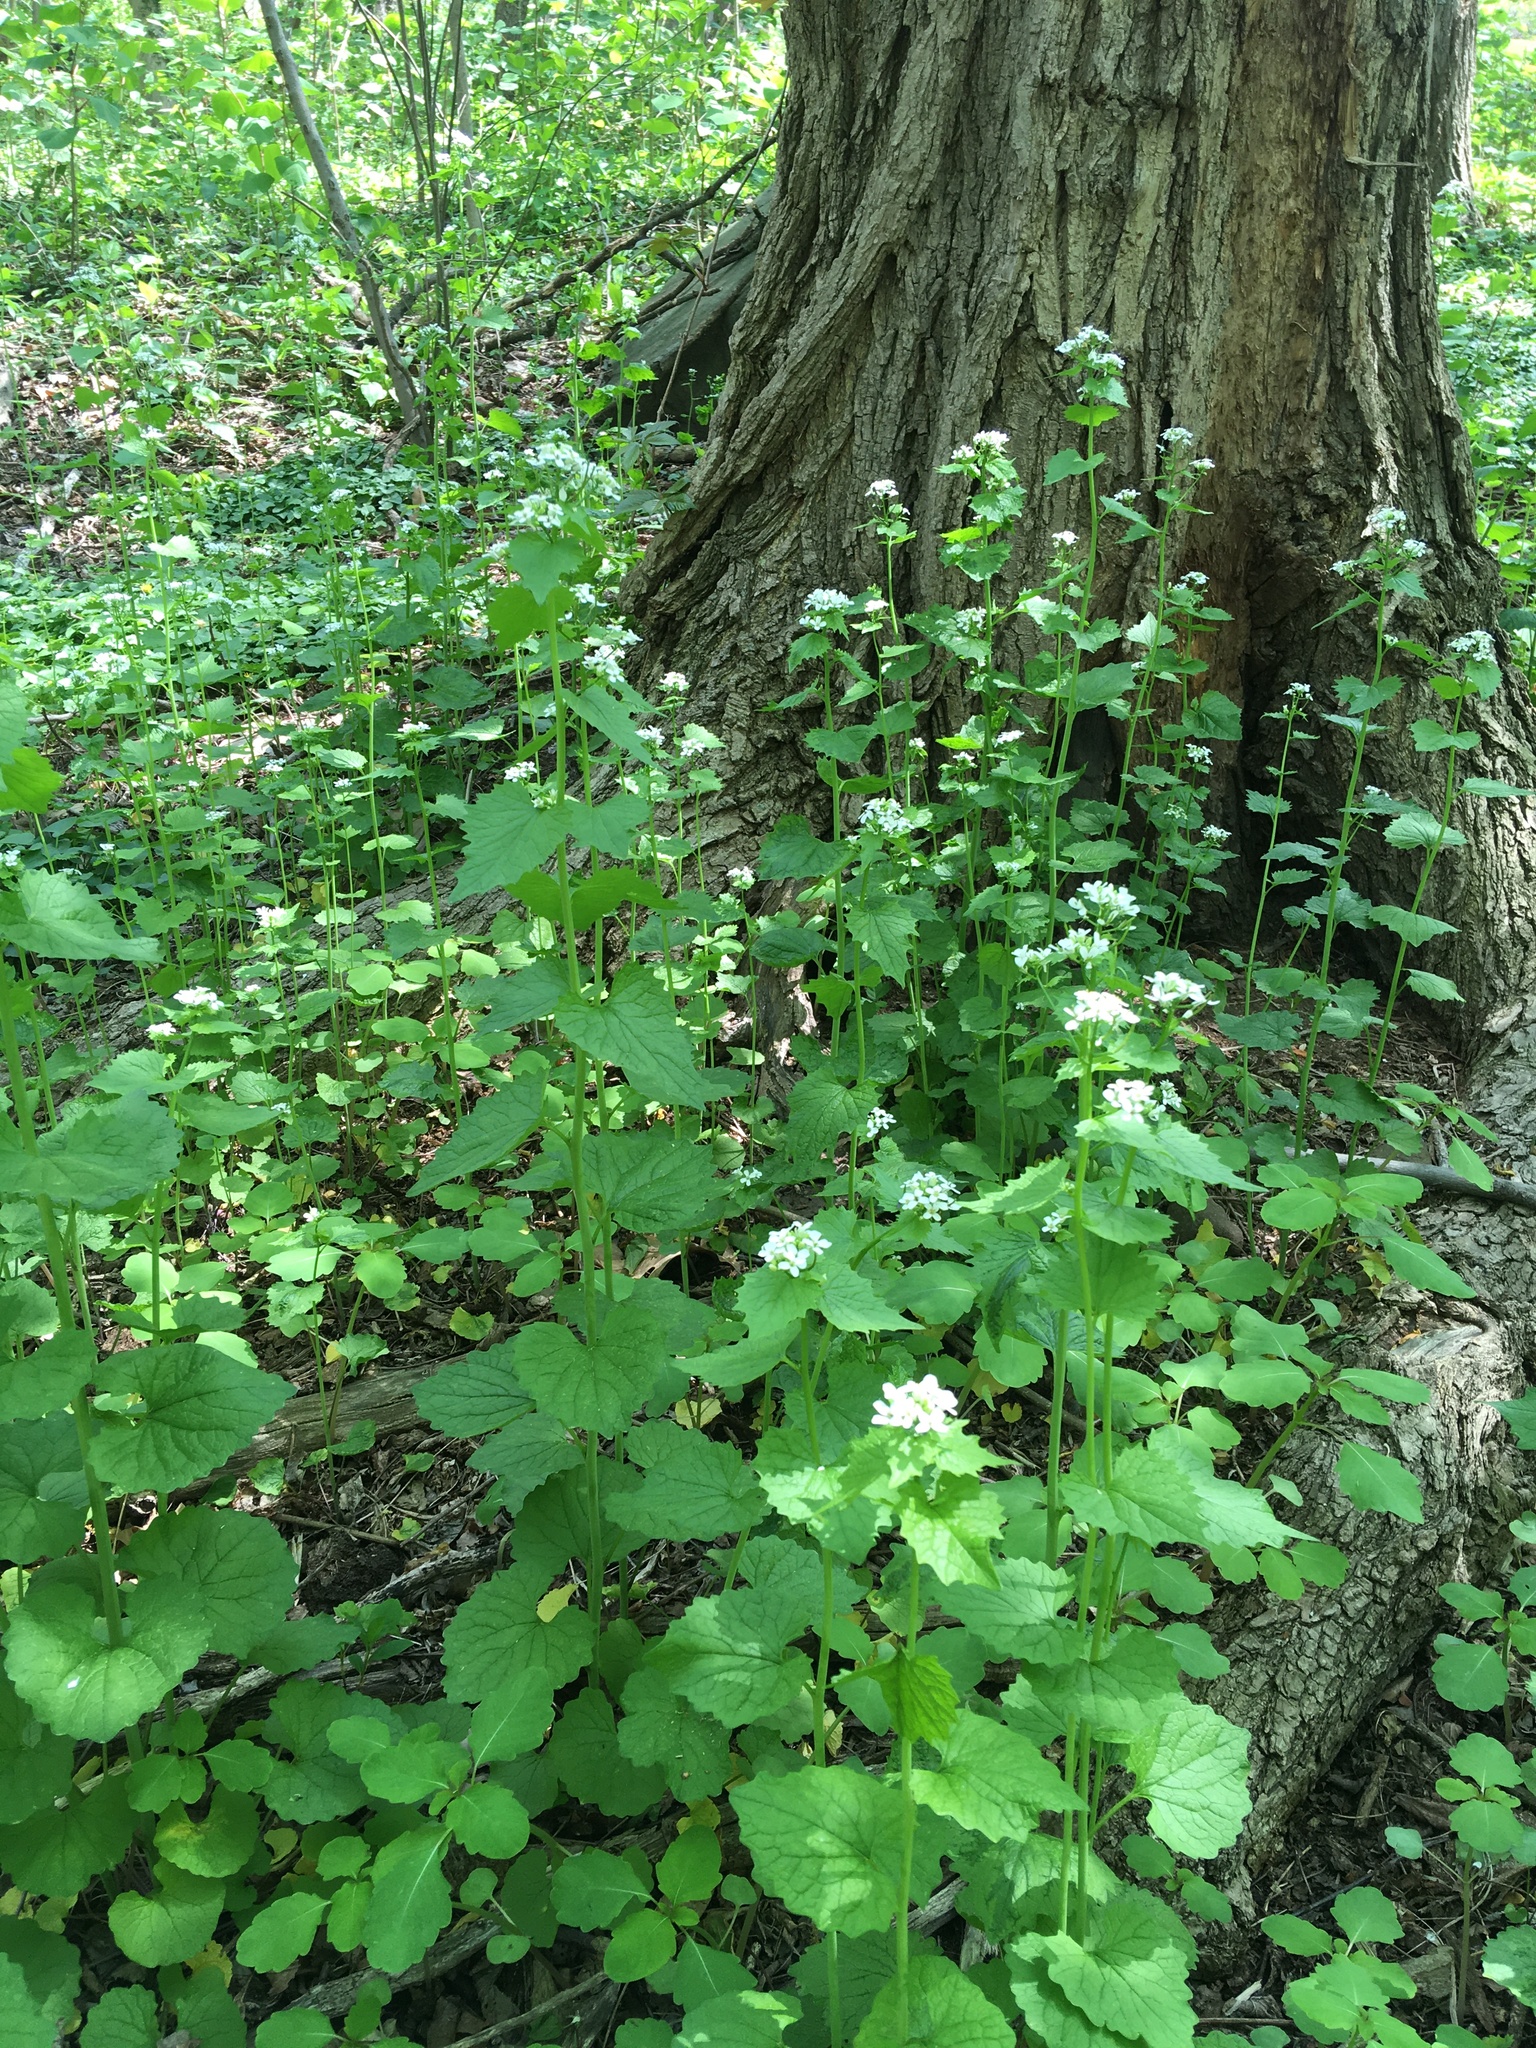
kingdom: Plantae
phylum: Tracheophyta
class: Magnoliopsida
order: Brassicales
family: Brassicaceae
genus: Alliaria
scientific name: Alliaria petiolata
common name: Garlic mustard
